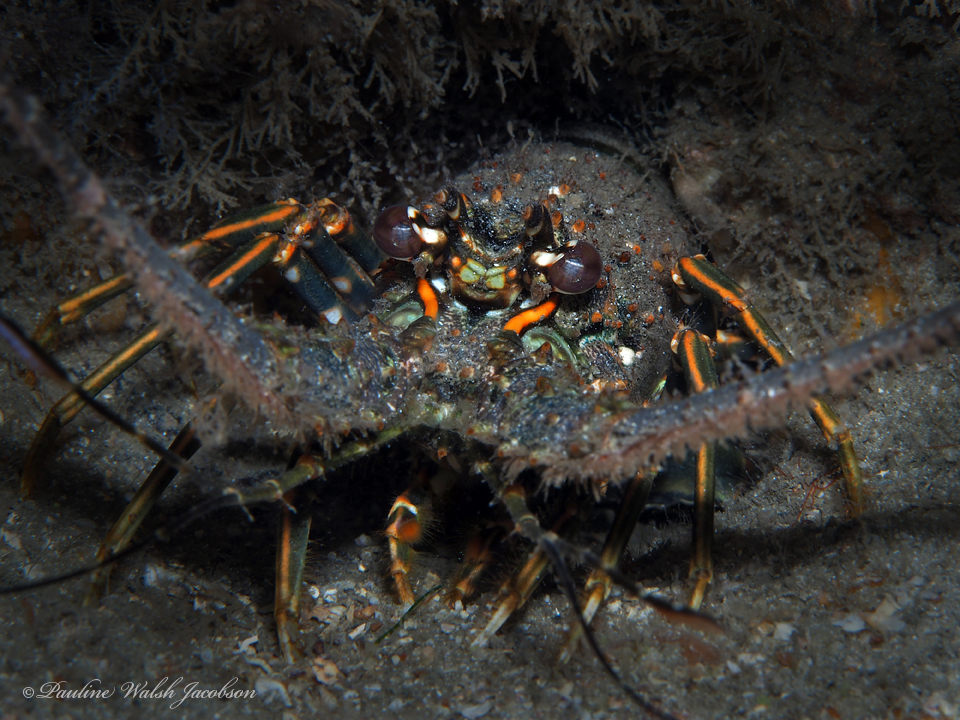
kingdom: Animalia
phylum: Arthropoda
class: Malacostraca
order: Decapoda
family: Palinuridae
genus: Panulirus
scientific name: Panulirus argus
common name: Caribbean spiny lobster
